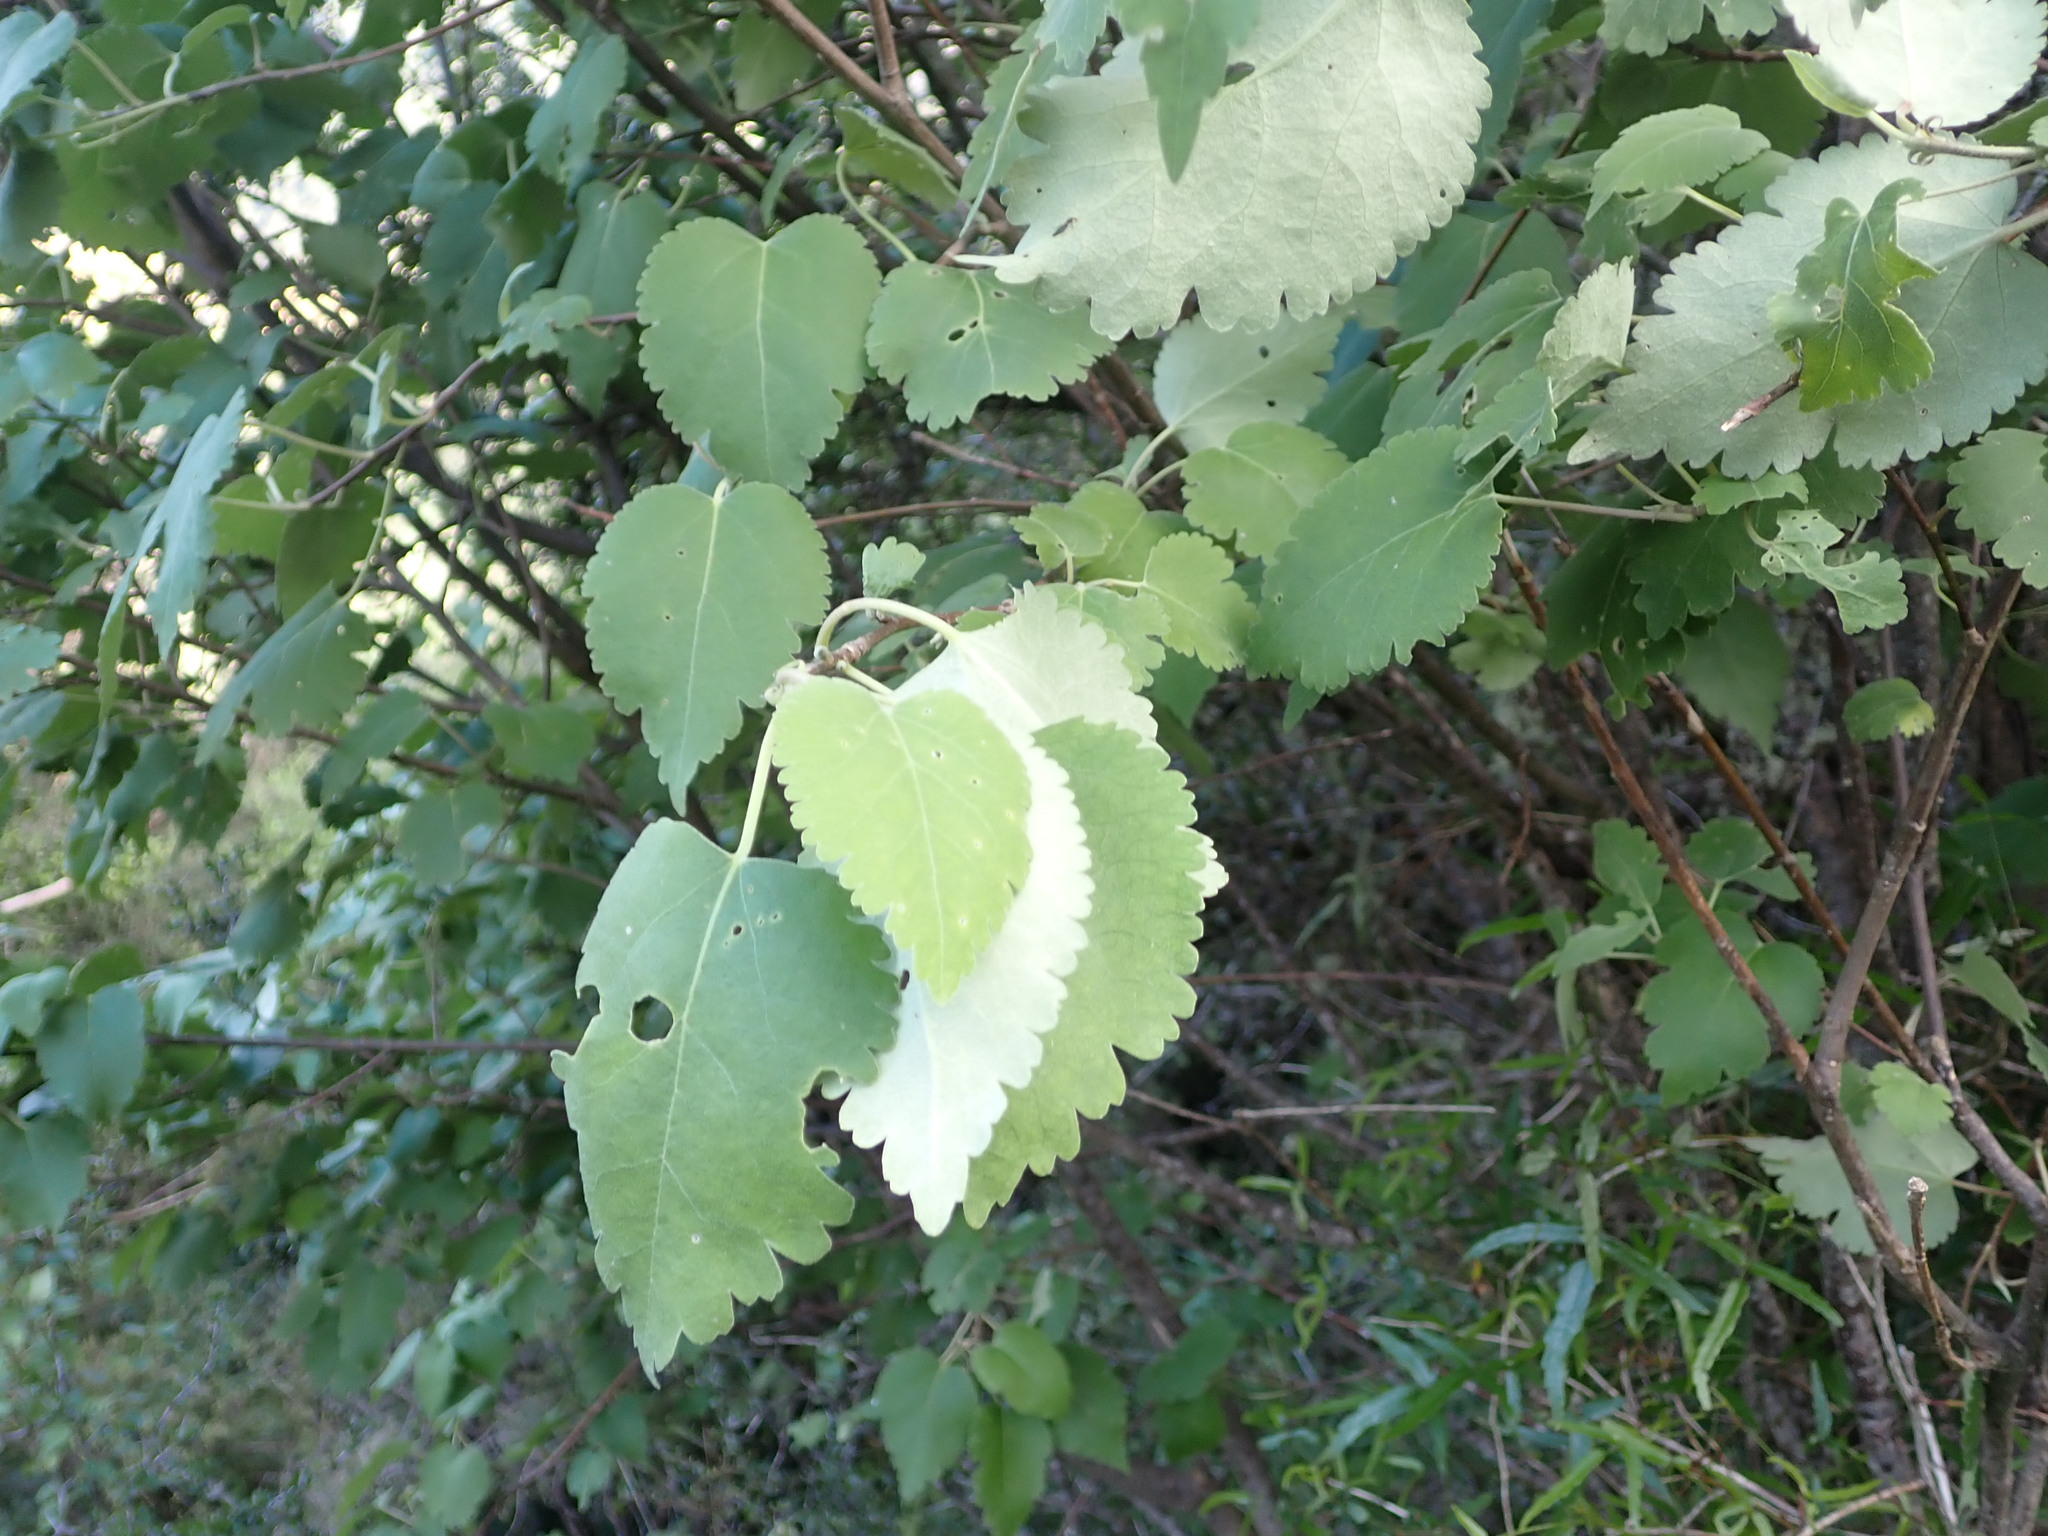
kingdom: Plantae
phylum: Tracheophyta
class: Magnoliopsida
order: Malvales
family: Malvaceae
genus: Hoheria
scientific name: Hoheria lyallii
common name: Lacebark
